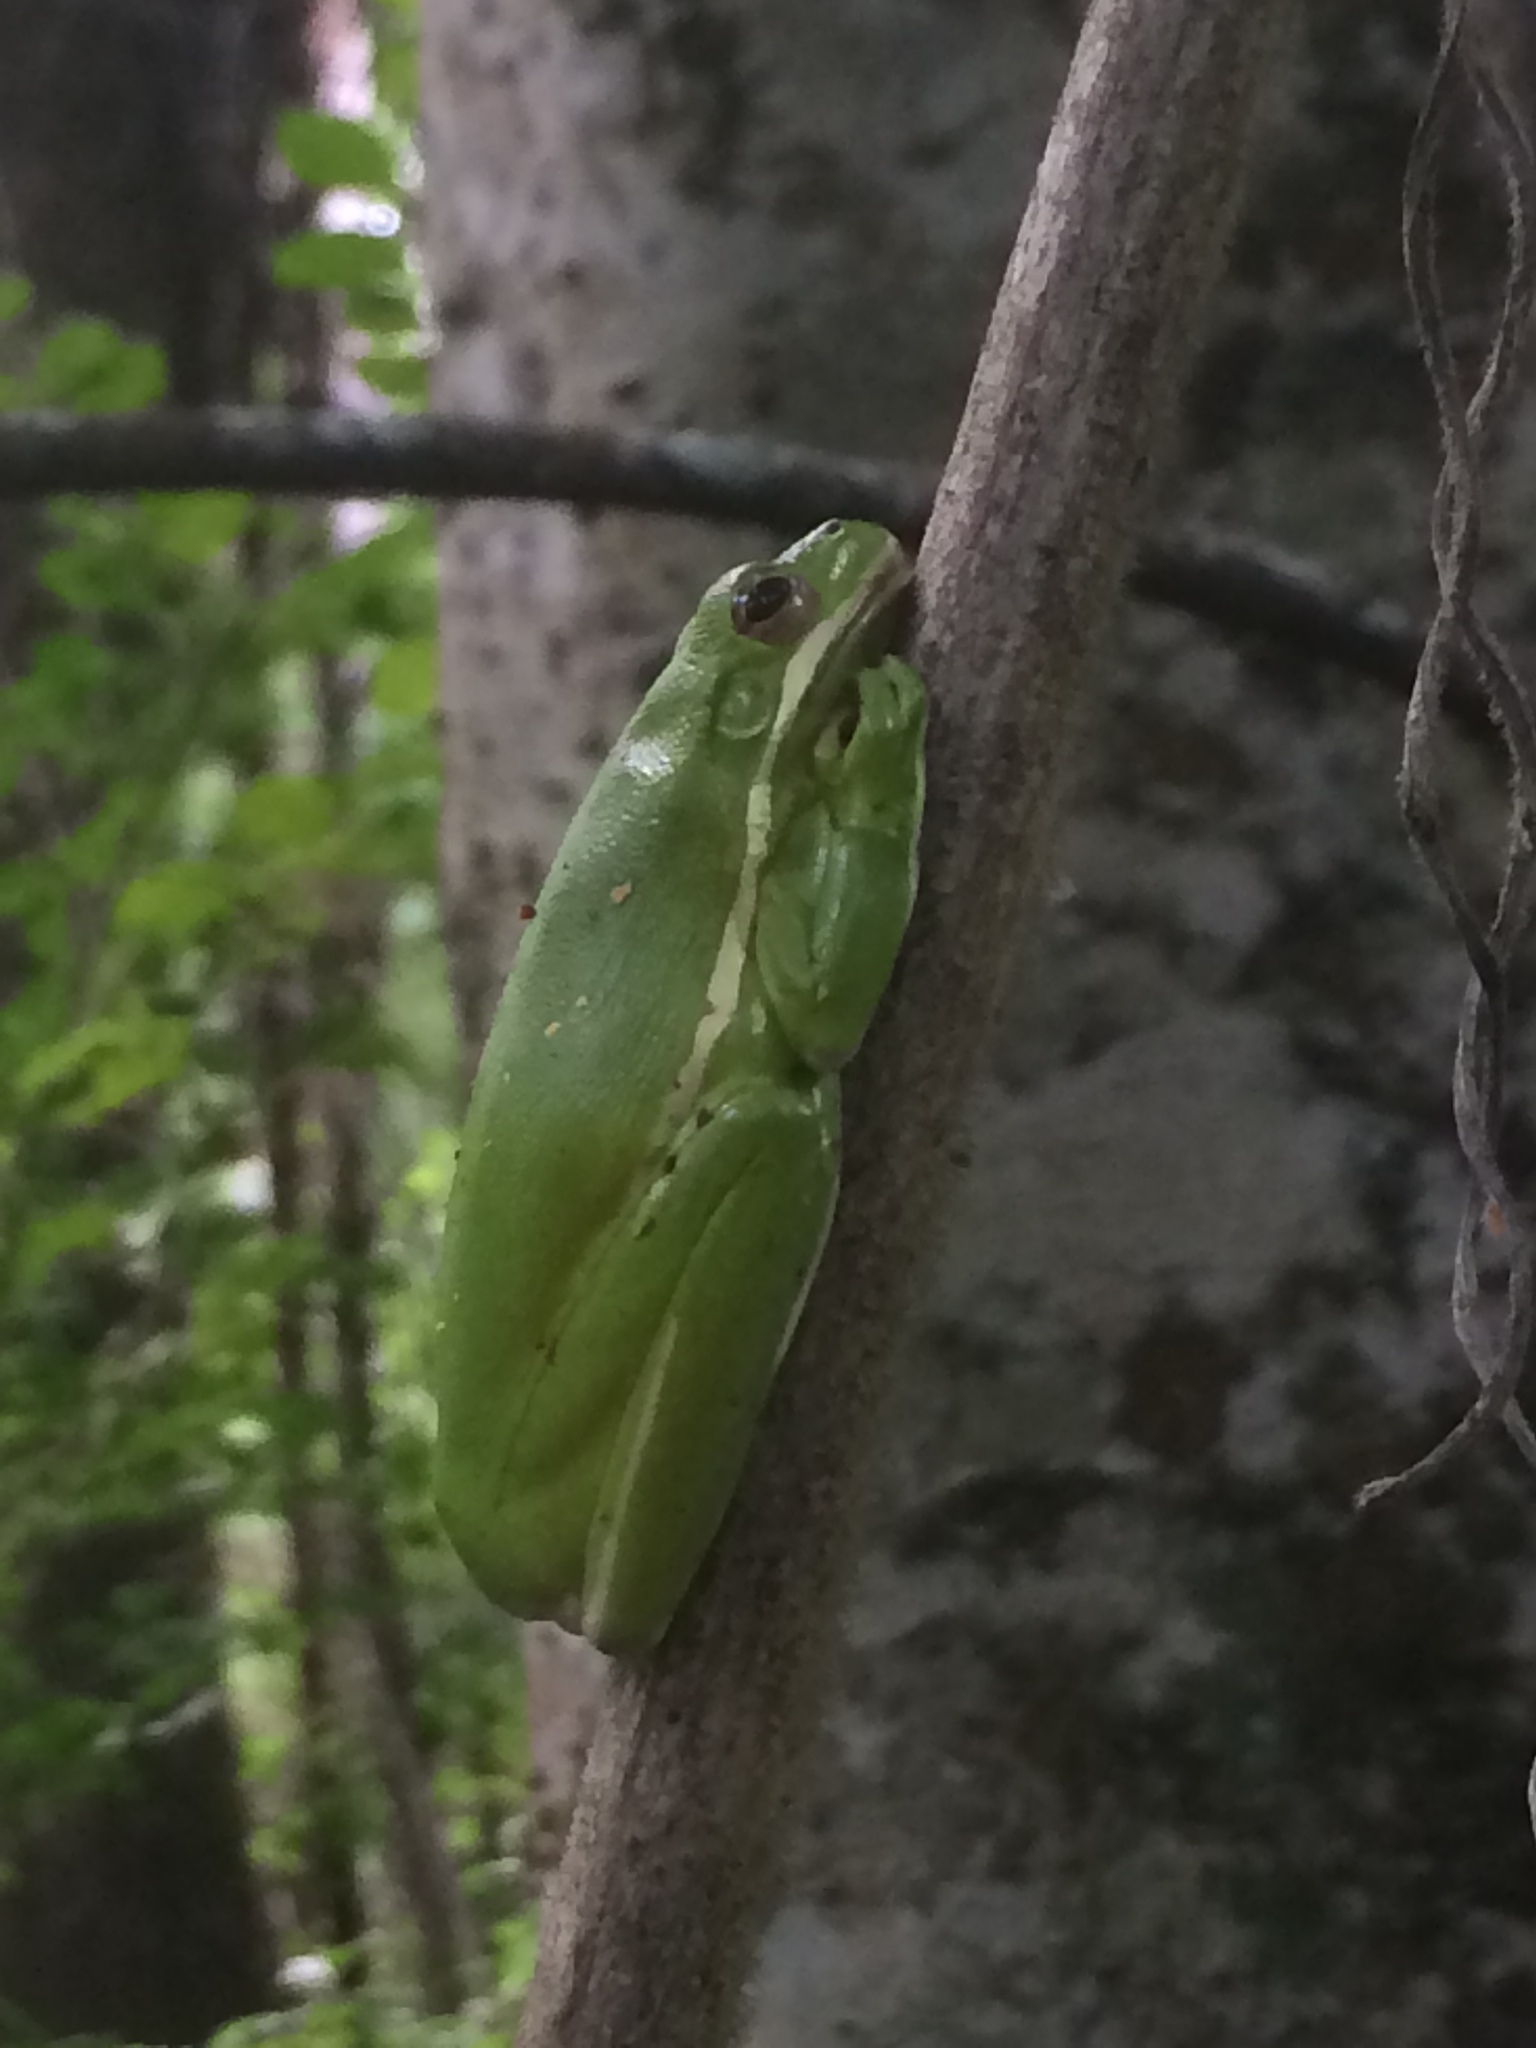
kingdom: Animalia
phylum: Chordata
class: Amphibia
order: Anura
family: Hylidae
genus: Dryophytes
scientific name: Dryophytes cinereus
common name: Green treefrog
